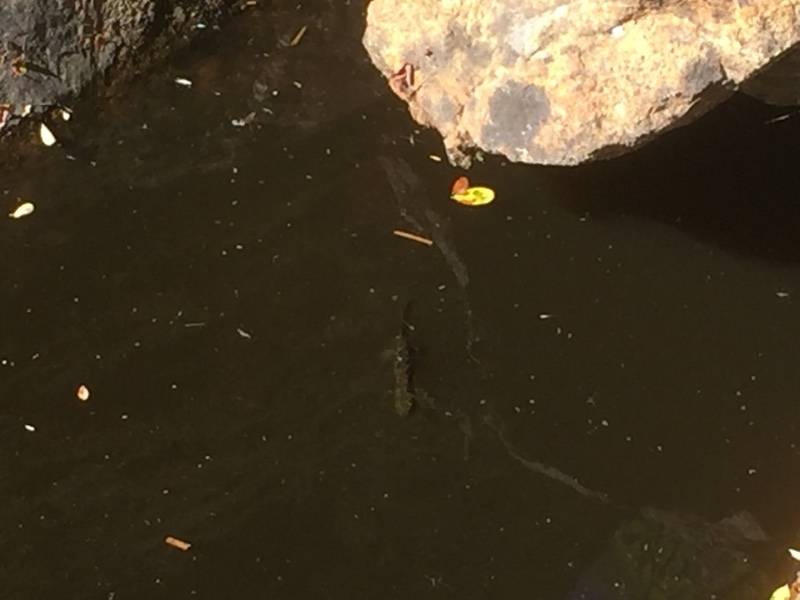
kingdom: Animalia
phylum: Chordata
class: Amphibia
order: Caudata
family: Salamandridae
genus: Triturus
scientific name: Triturus marmoratus
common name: Marbled newt
